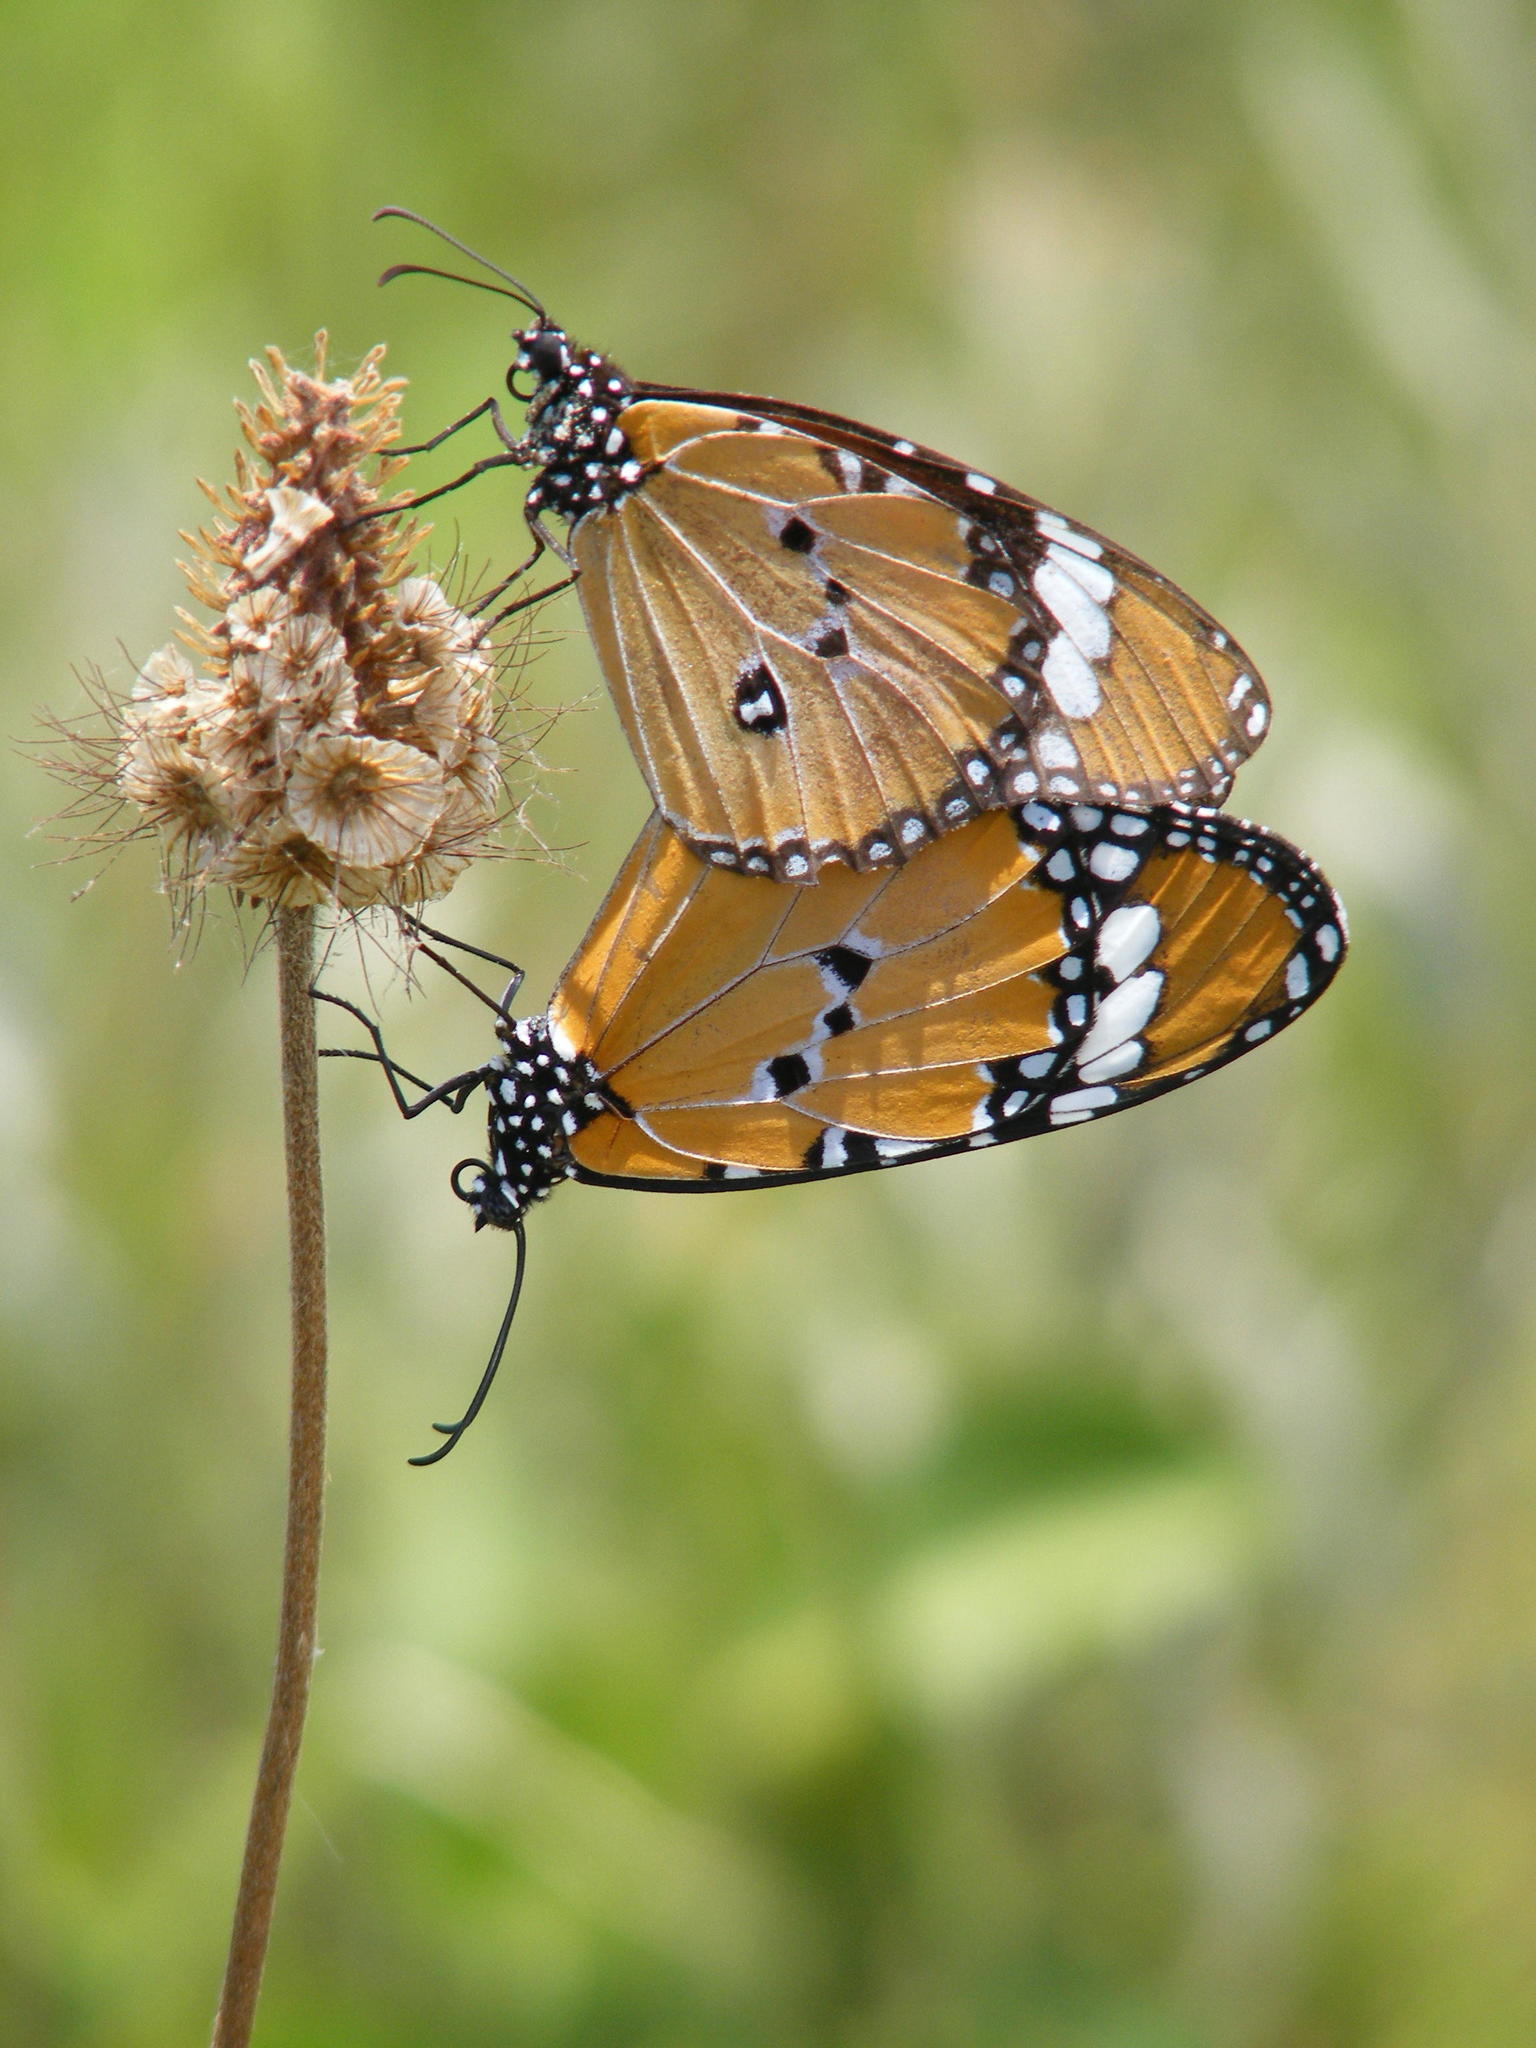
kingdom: Animalia
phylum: Arthropoda
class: Insecta
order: Lepidoptera
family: Nymphalidae
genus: Danaus
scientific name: Danaus chrysippus
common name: Plain tiger
